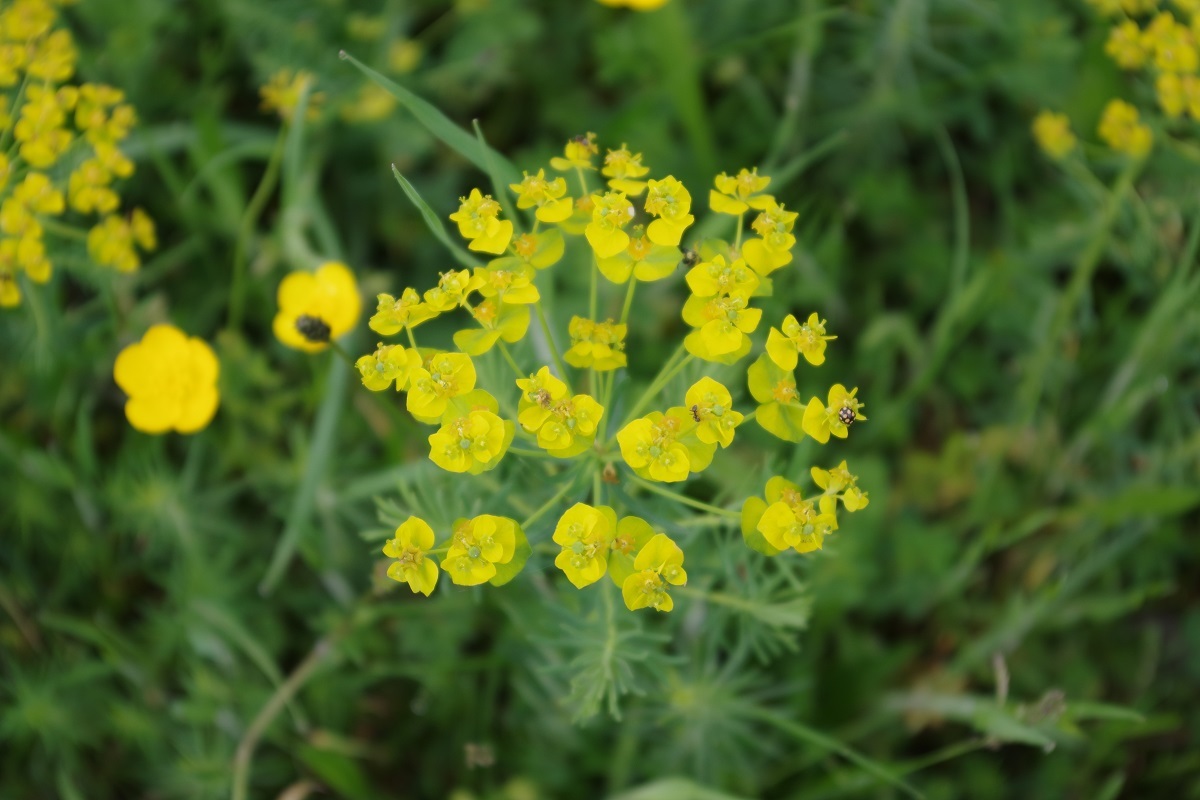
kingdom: Plantae
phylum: Tracheophyta
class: Magnoliopsida
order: Malpighiales
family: Euphorbiaceae
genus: Euphorbia
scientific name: Euphorbia cyparissias
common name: Cypress spurge
